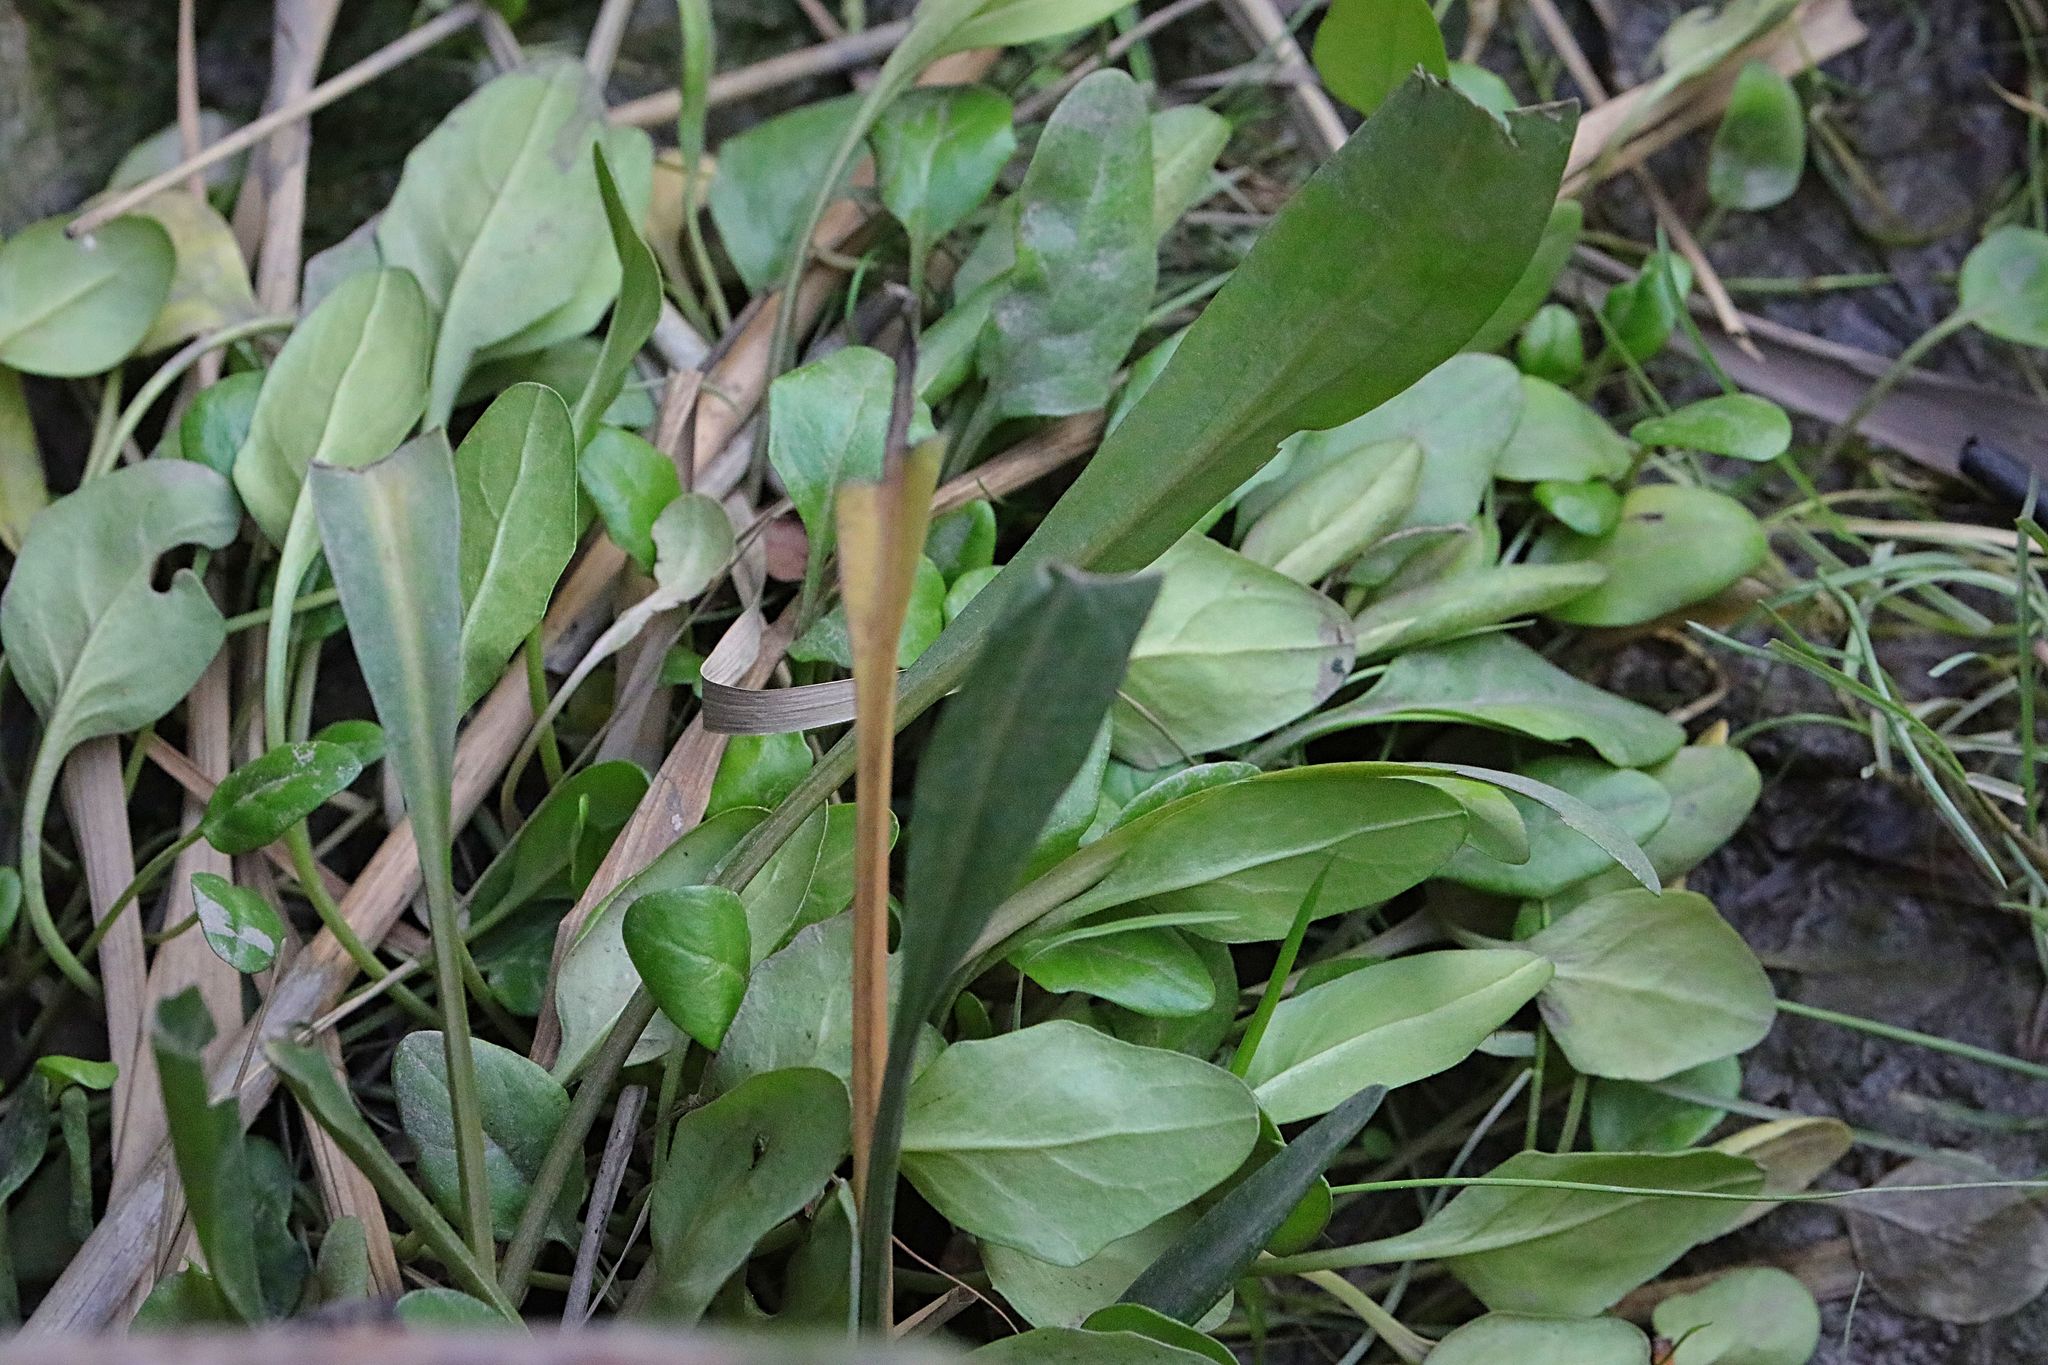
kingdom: Plantae
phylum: Tracheophyta
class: Magnoliopsida
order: Brassicales
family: Brassicaceae
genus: Cochlearia
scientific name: Cochlearia anglica
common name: English scurvygrass
